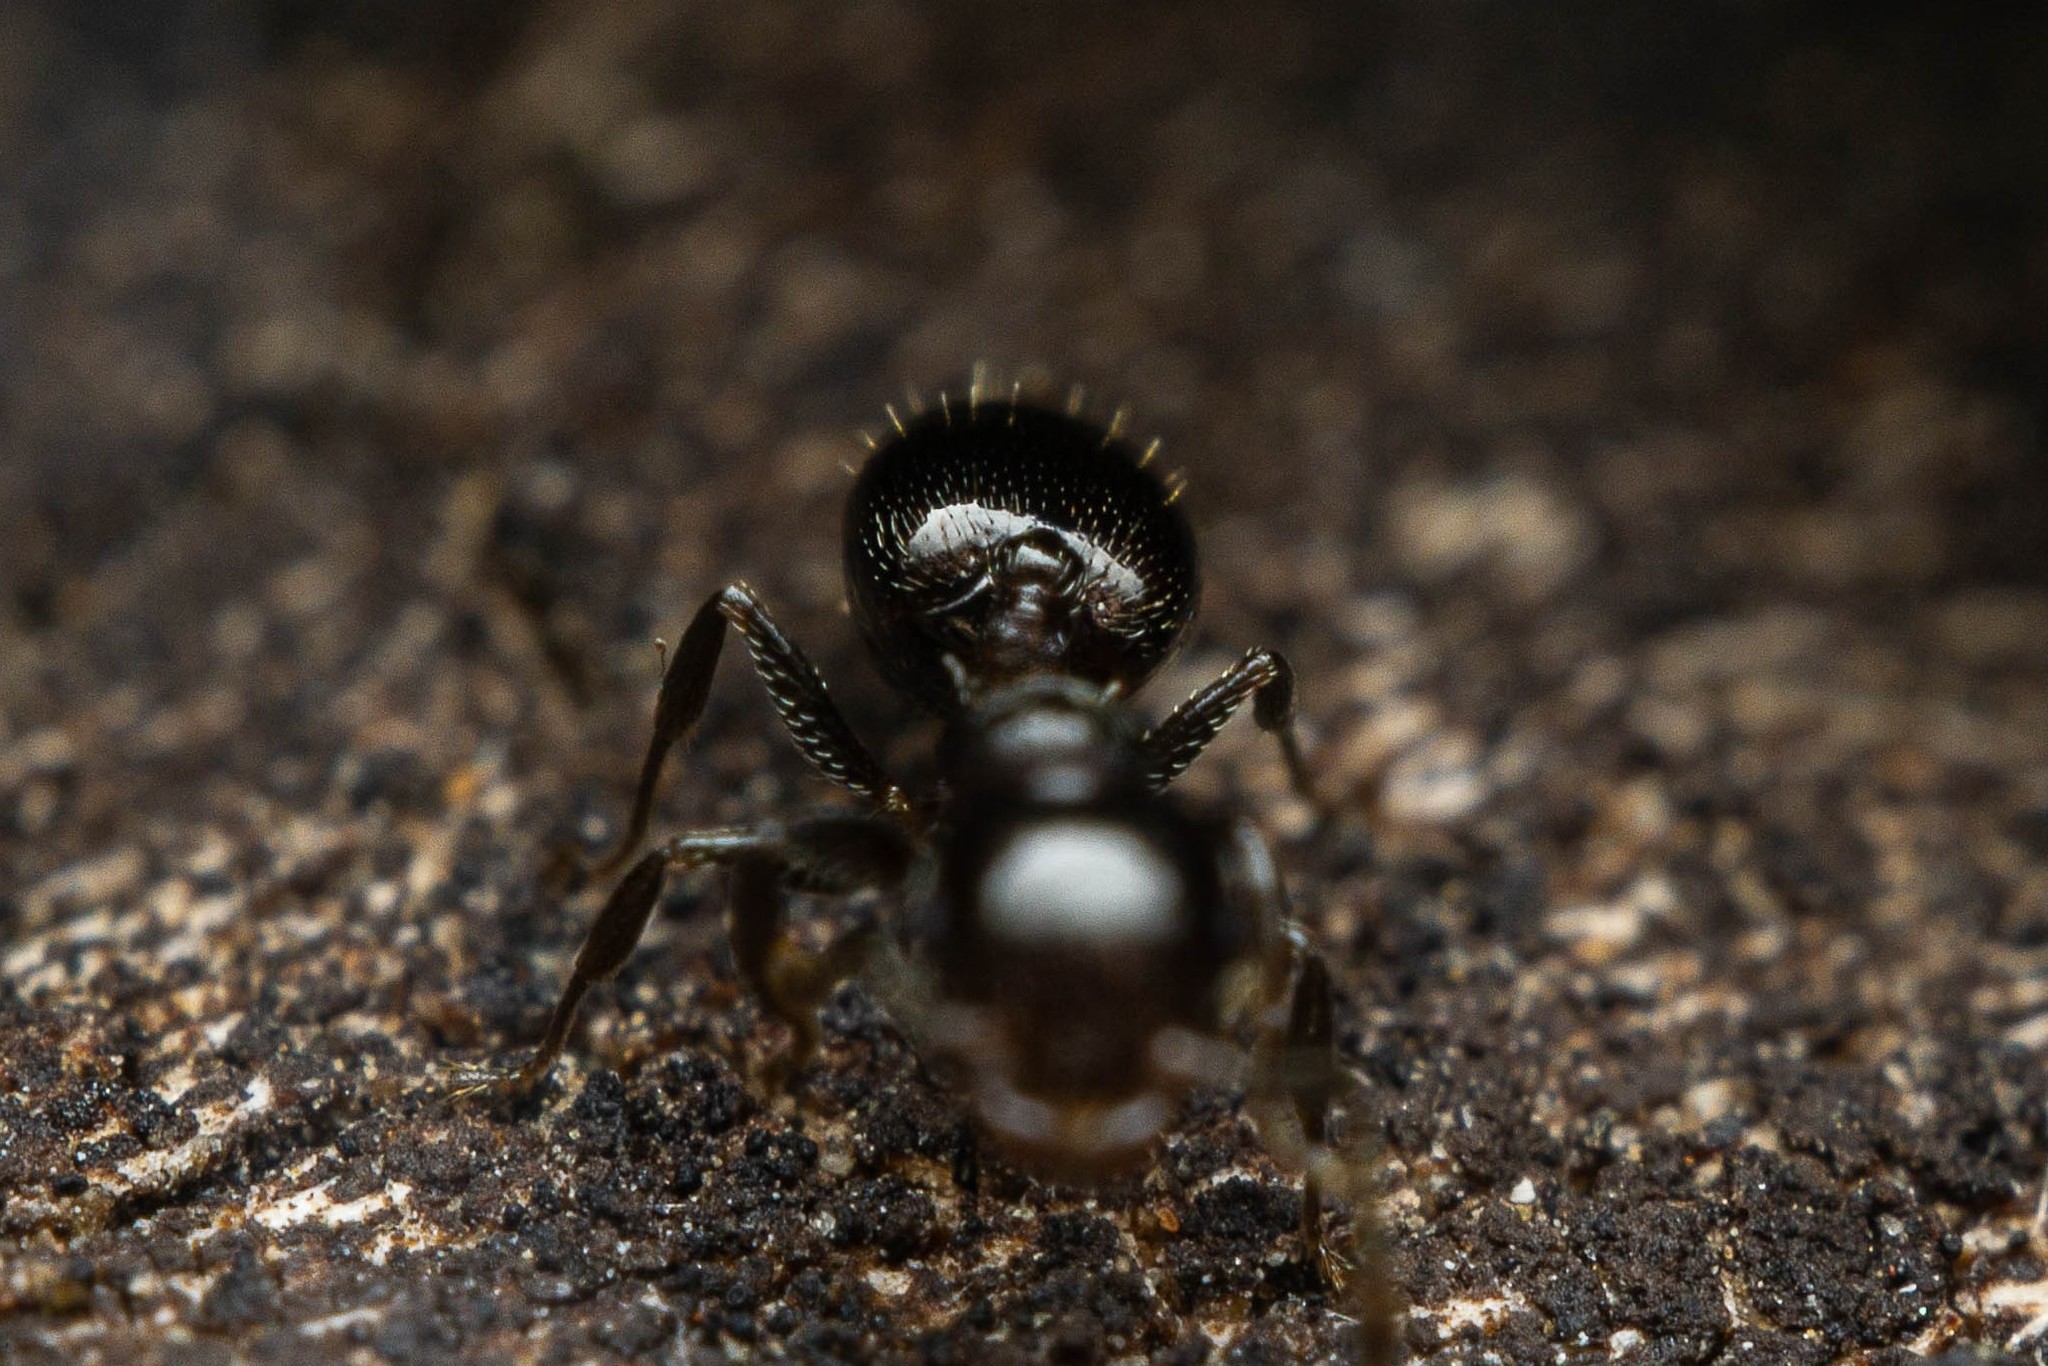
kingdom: Animalia
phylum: Arthropoda
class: Insecta
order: Hymenoptera
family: Formicidae
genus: Crematogaster
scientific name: Crematogaster torosa
